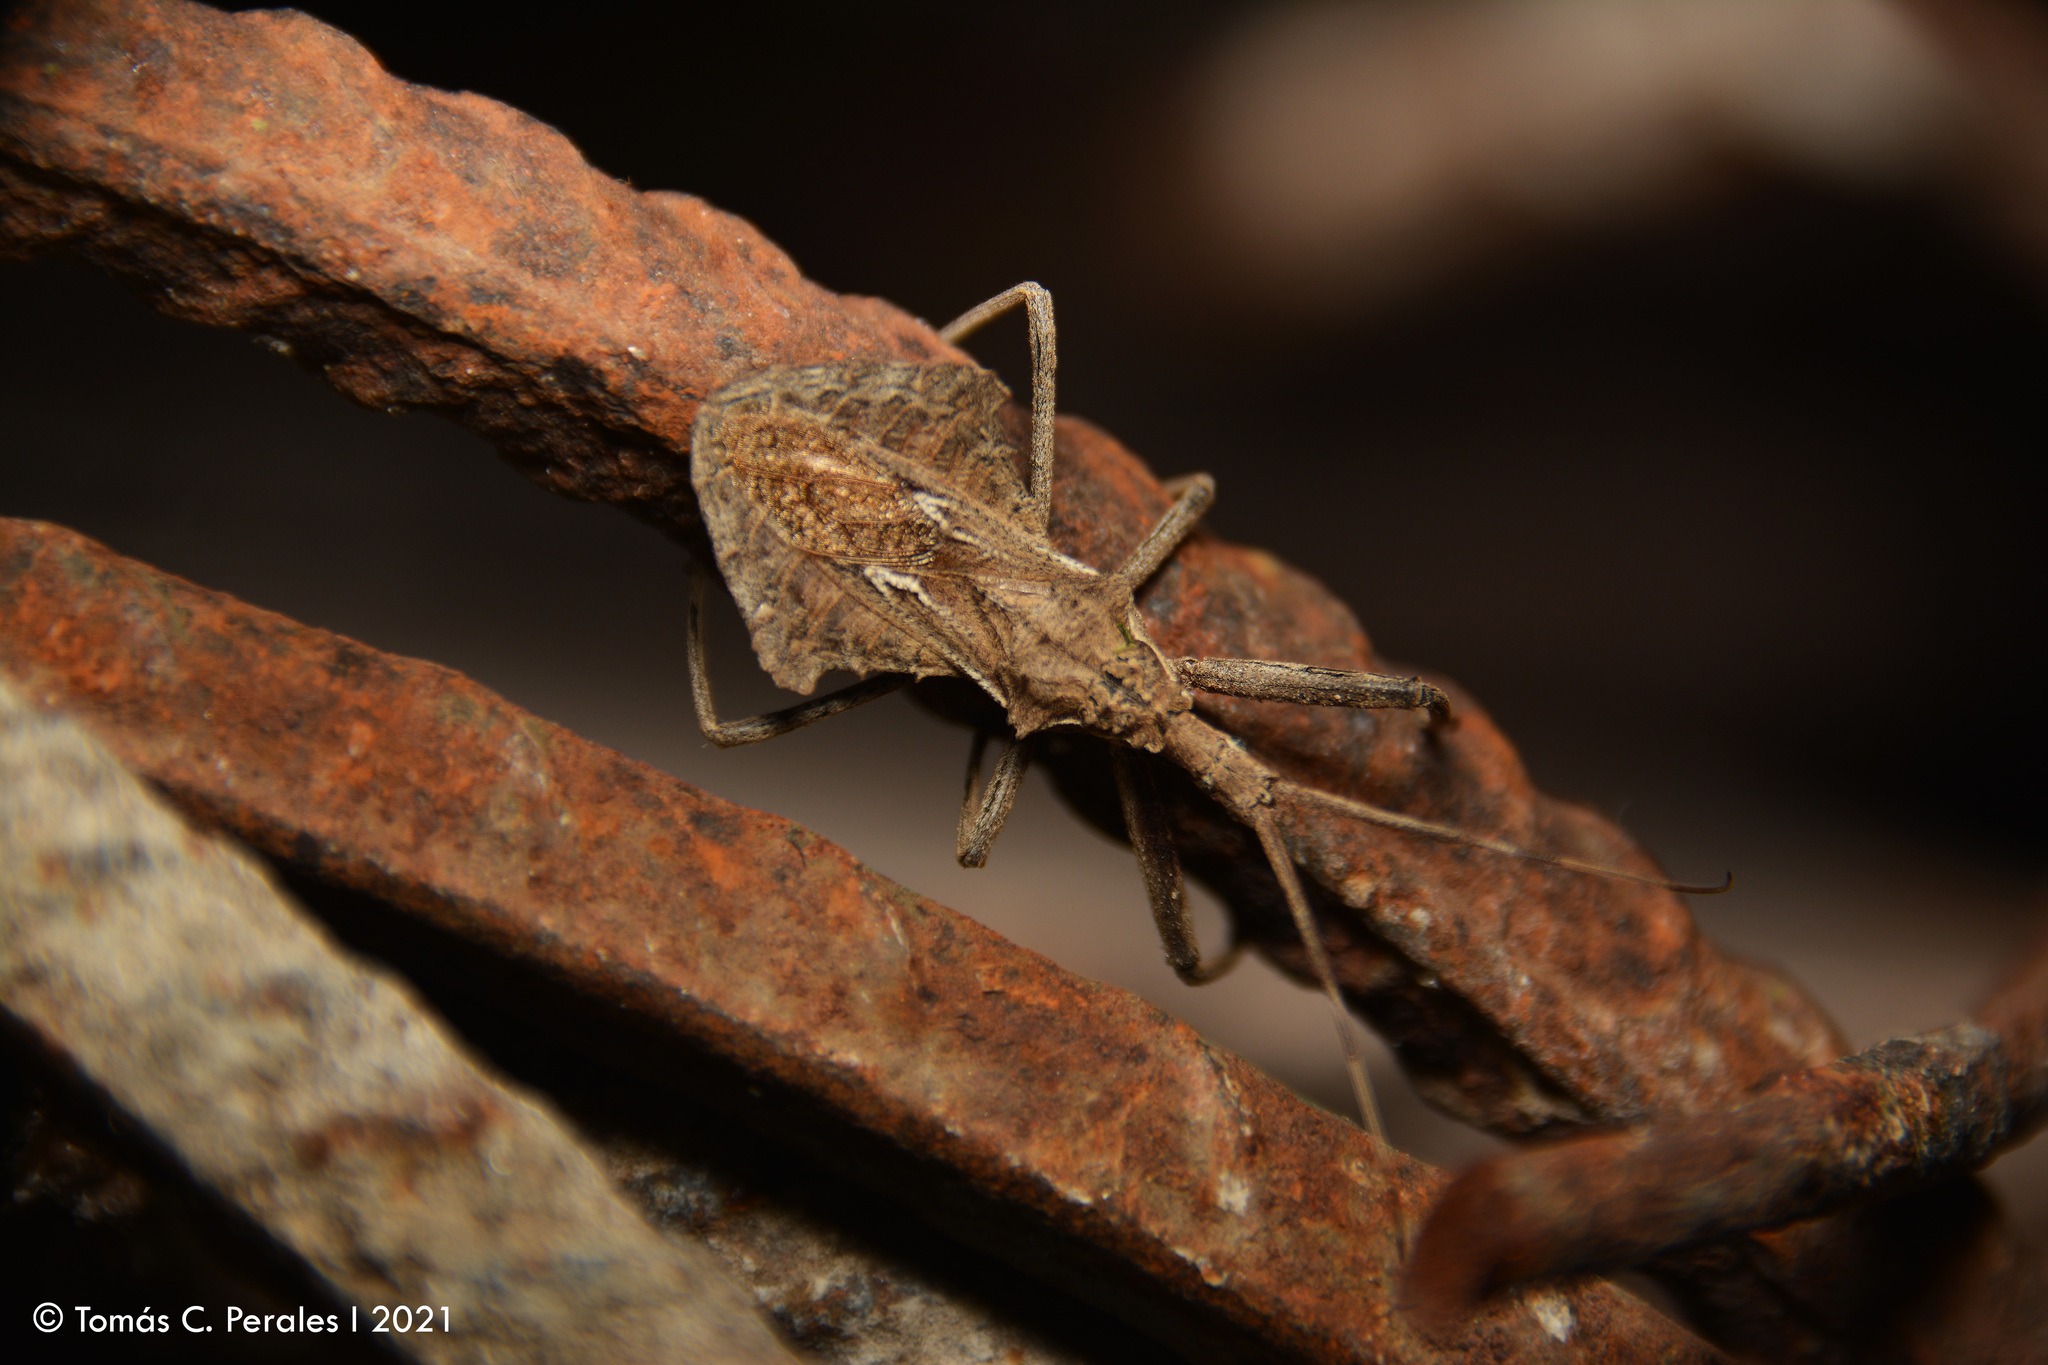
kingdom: Animalia
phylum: Arthropoda
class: Insecta
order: Hemiptera
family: Reduviidae
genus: Harpactor
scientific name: Harpactor tuberculosus
